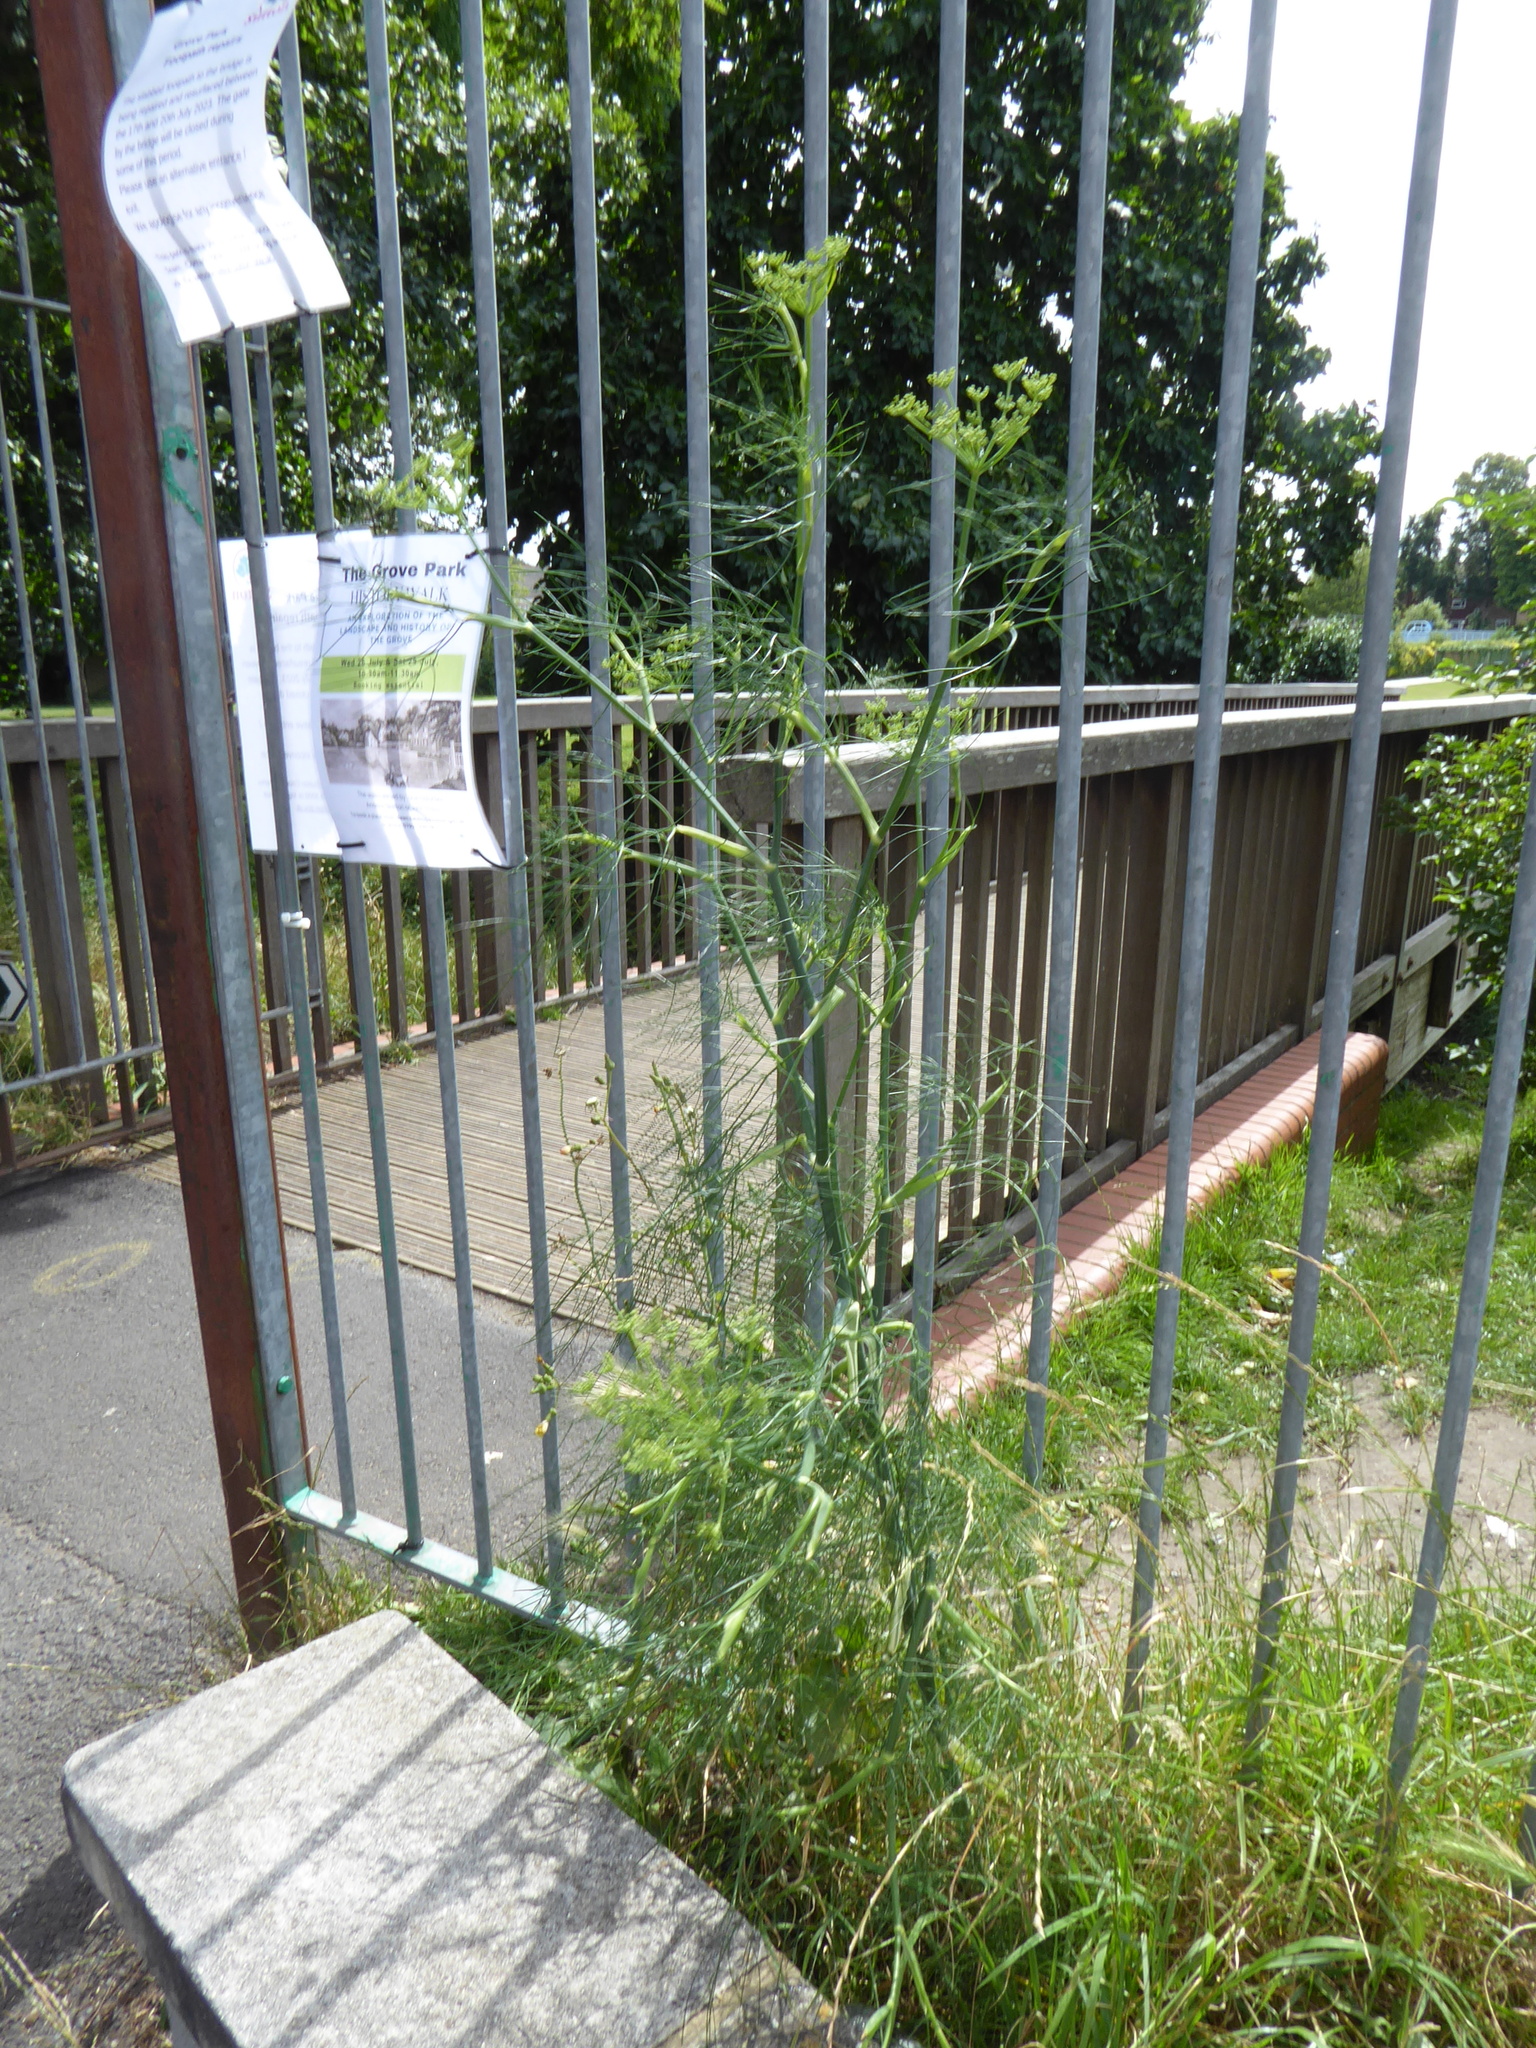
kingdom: Plantae
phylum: Tracheophyta
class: Magnoliopsida
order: Apiales
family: Apiaceae
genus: Foeniculum
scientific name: Foeniculum vulgare
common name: Fennel
